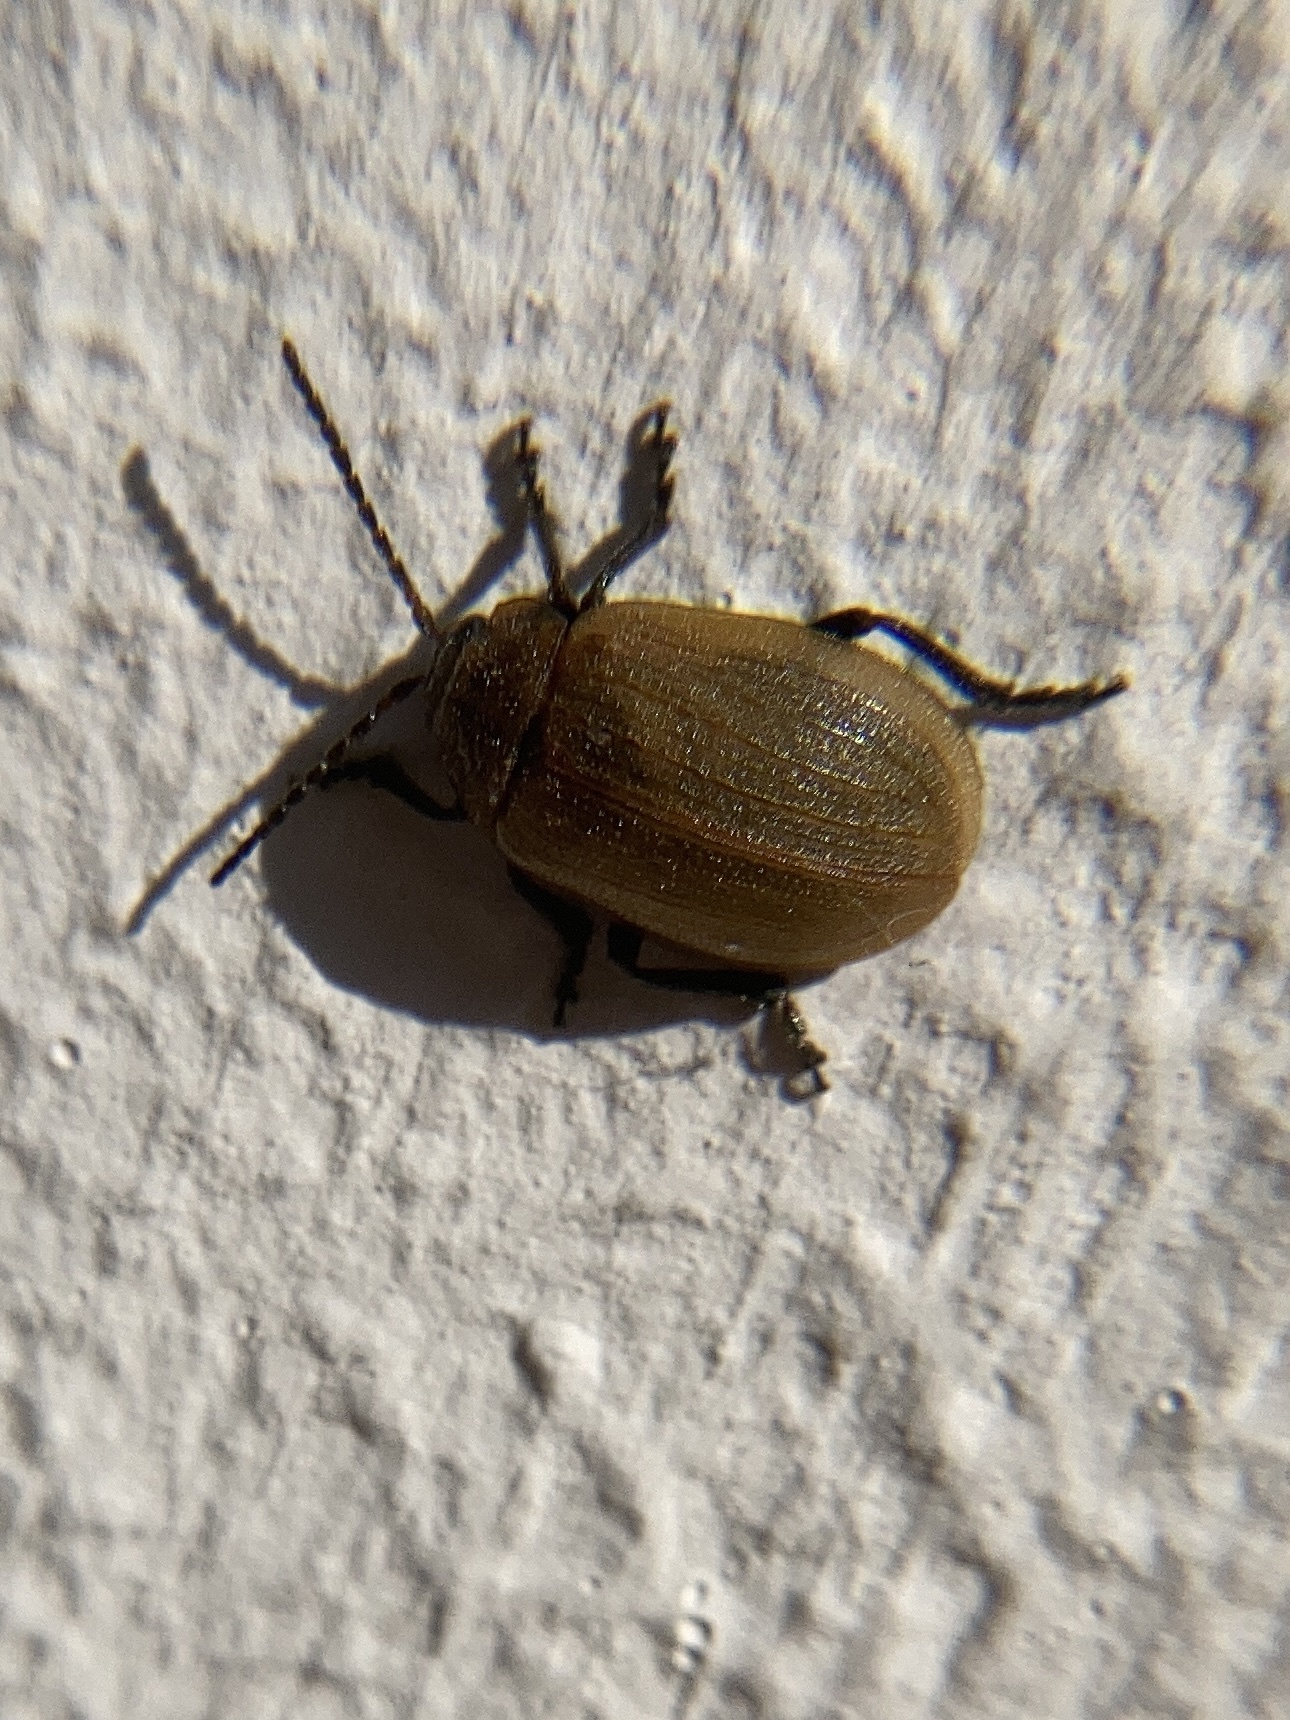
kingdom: Animalia
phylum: Arthropoda
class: Insecta
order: Coleoptera
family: Chrysomelidae
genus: Galeruca
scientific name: Galeruca pomonae
